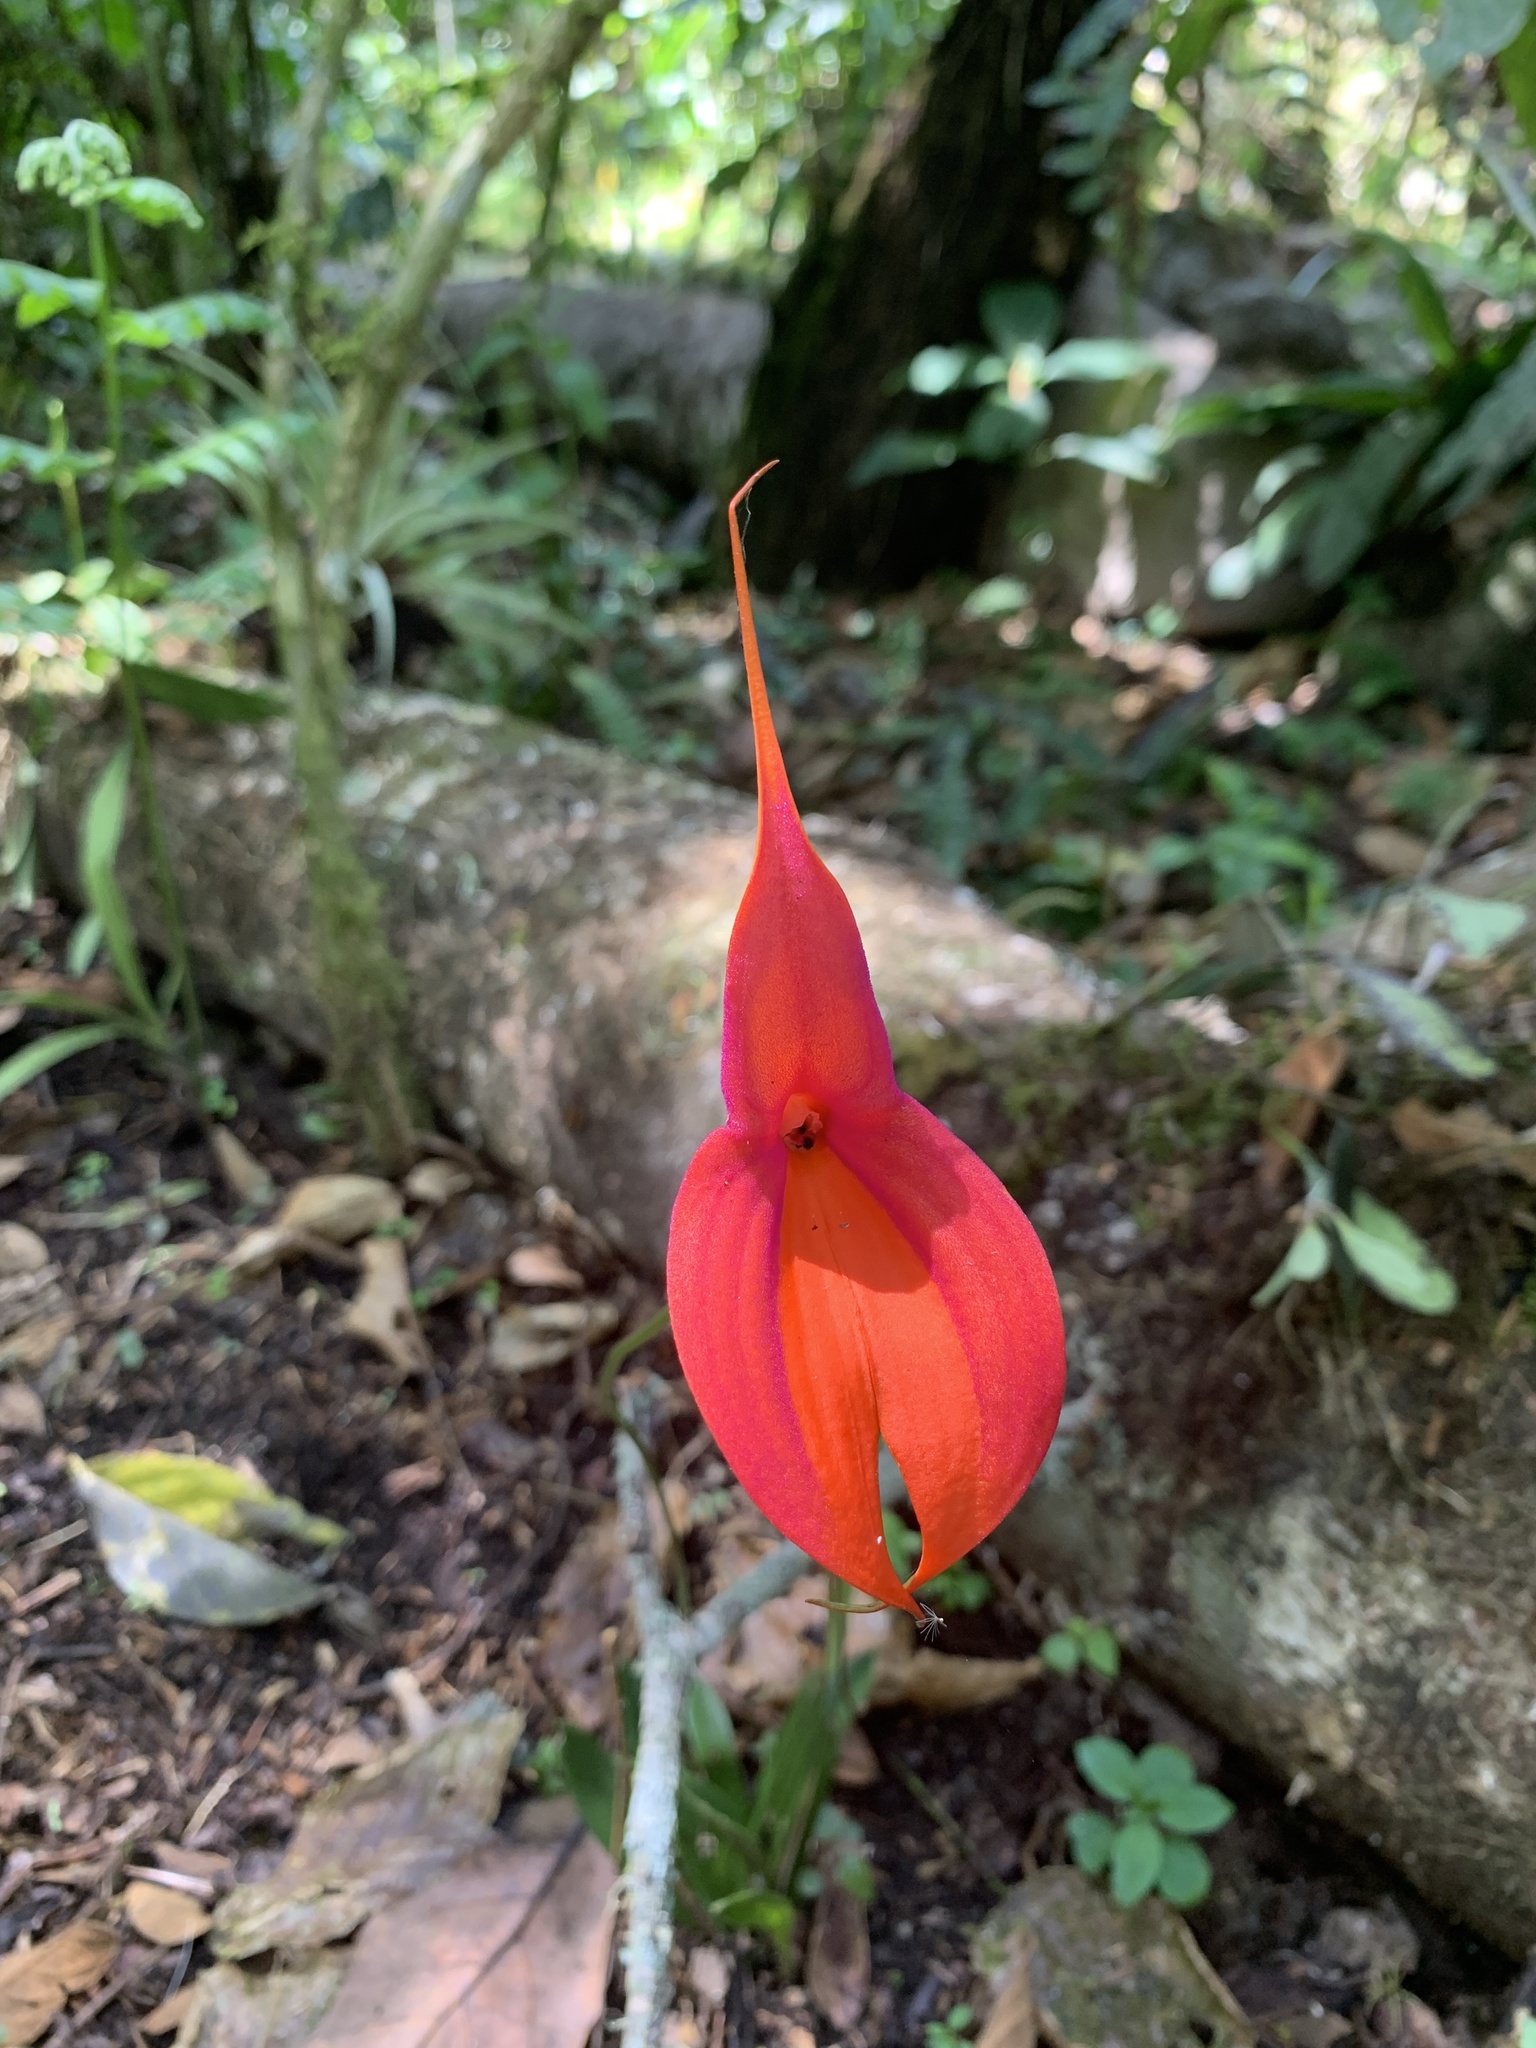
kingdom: Plantae
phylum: Tracheophyta
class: Liliopsida
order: Asparagales
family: Orchidaceae
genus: Masdevallia
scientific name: Masdevallia veitchiana
